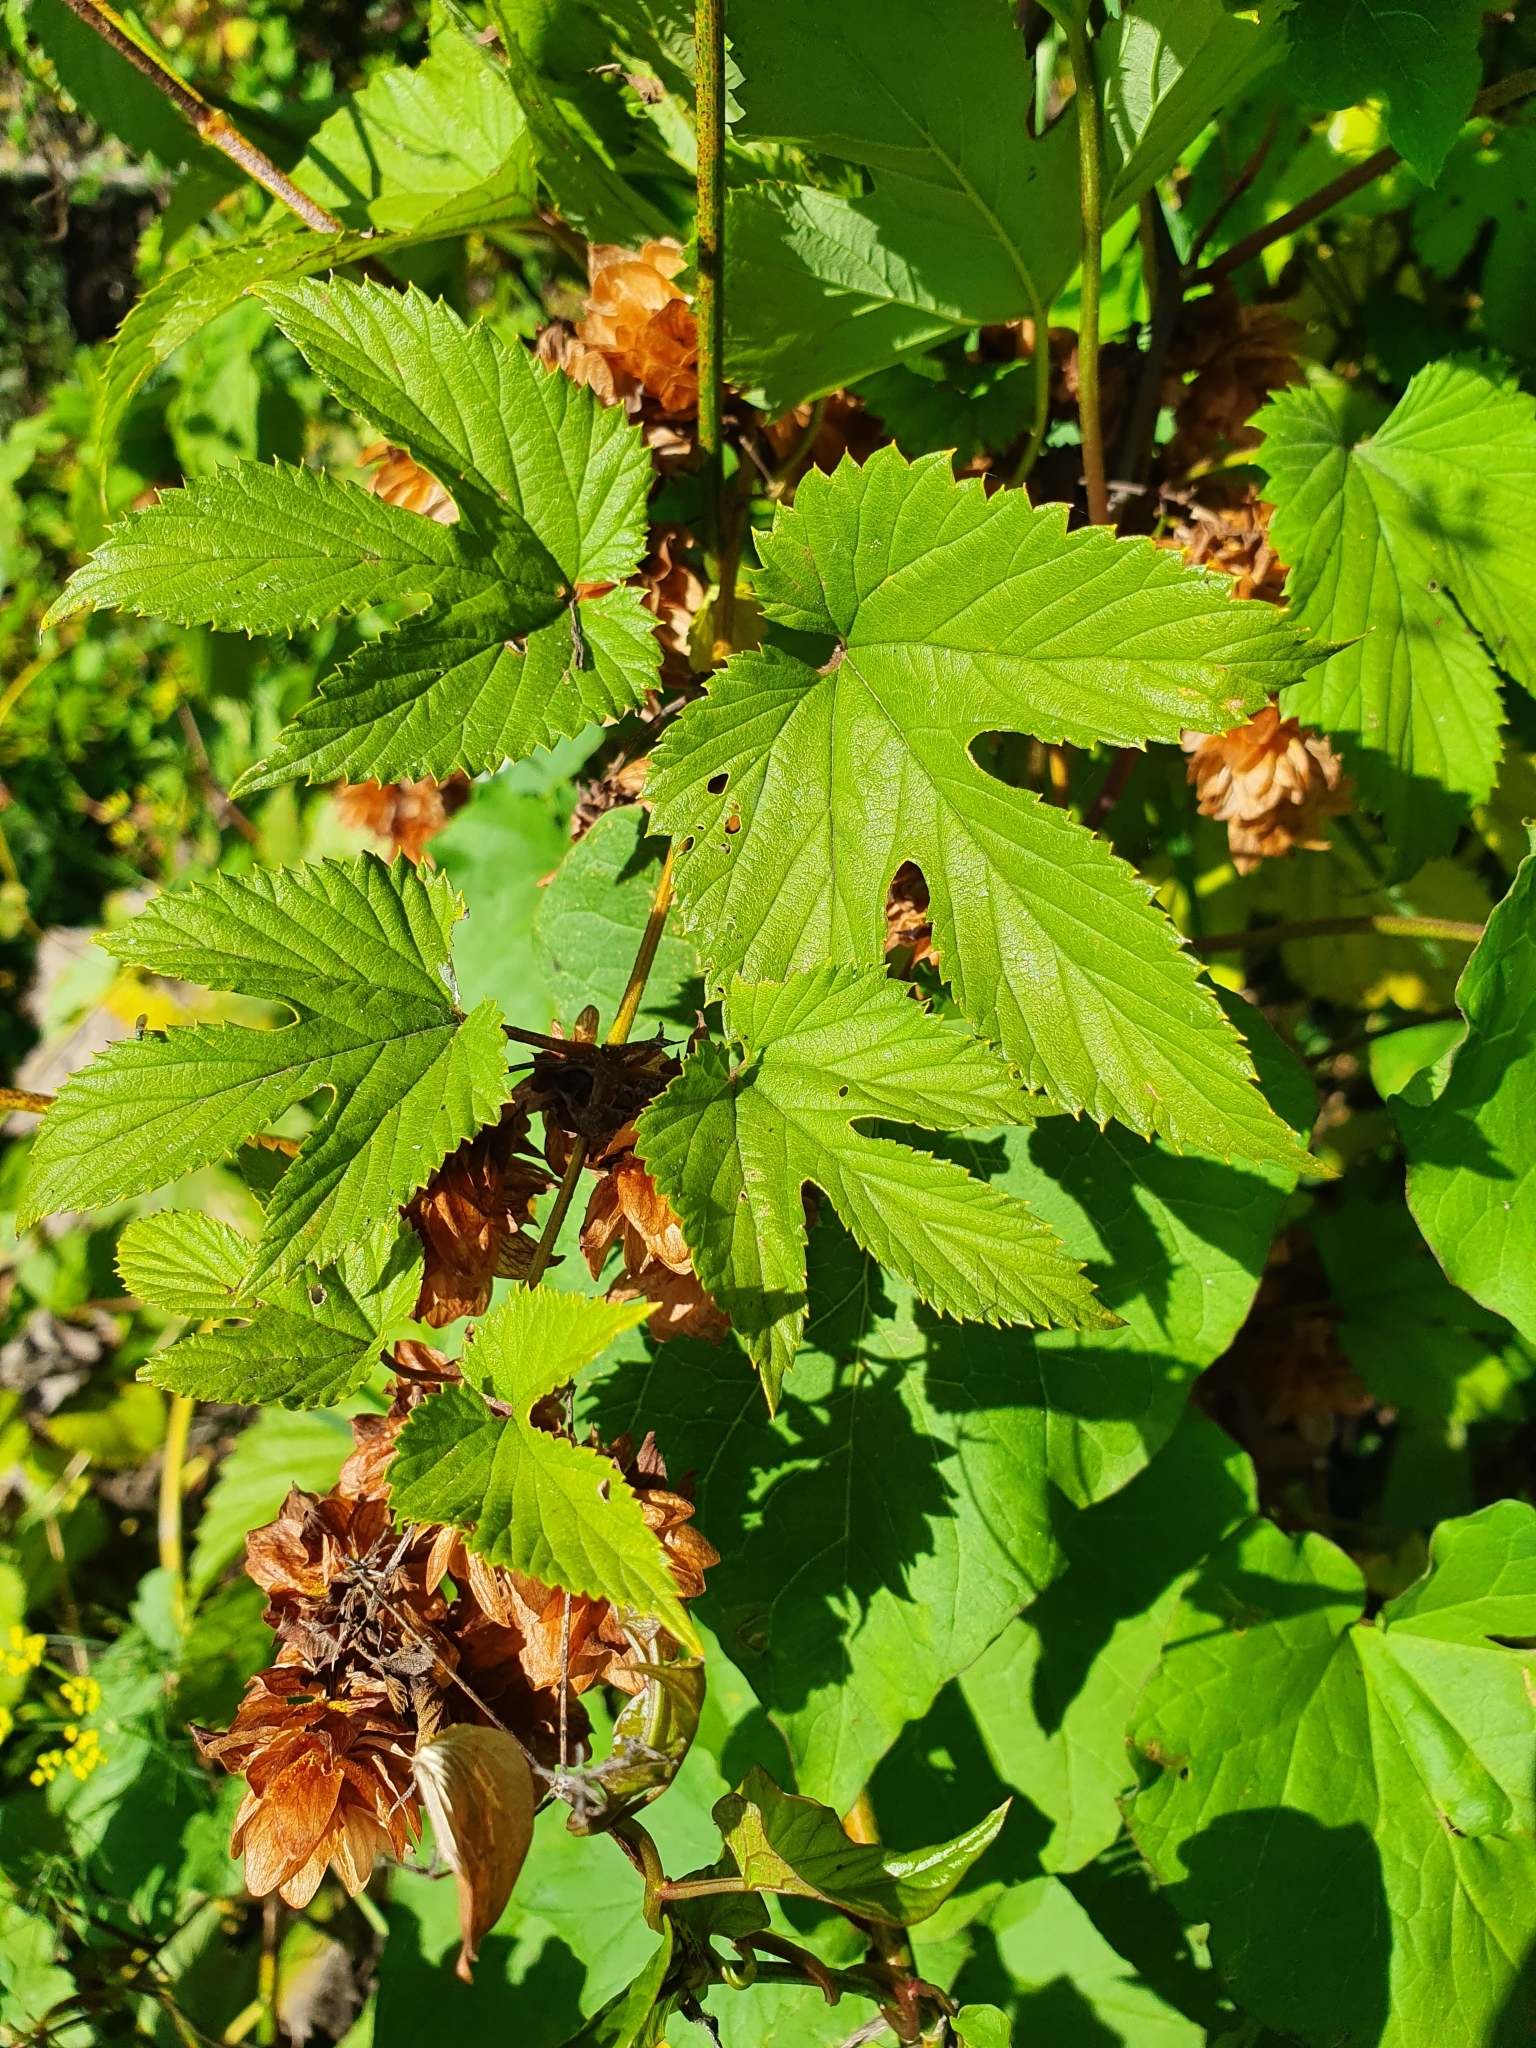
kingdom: Plantae
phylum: Tracheophyta
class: Magnoliopsida
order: Rosales
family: Cannabaceae
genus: Humulus
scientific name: Humulus lupulus
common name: Hop
